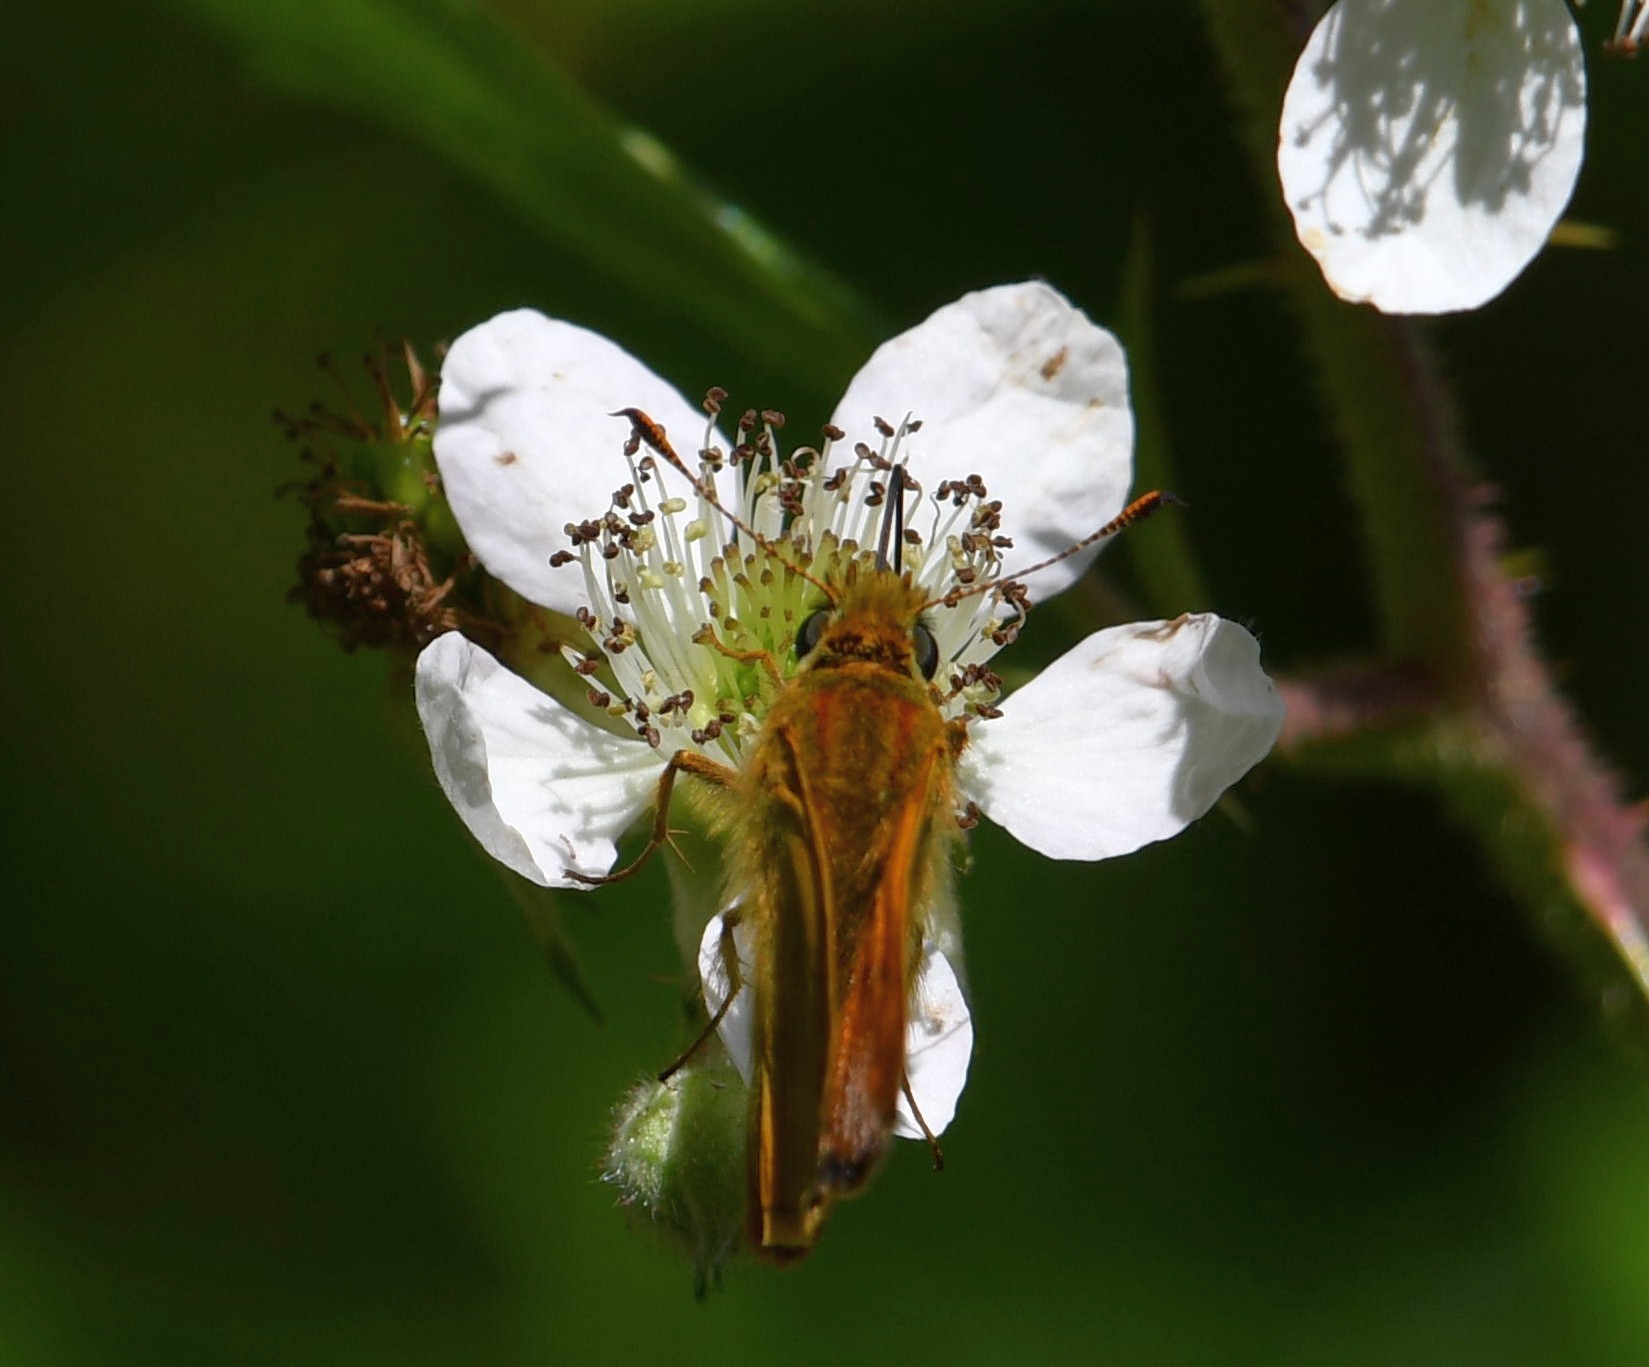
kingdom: Animalia
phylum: Arthropoda
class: Insecta
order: Lepidoptera
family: Hesperiidae
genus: Ochlodes
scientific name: Ochlodes venata
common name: Large skipper
